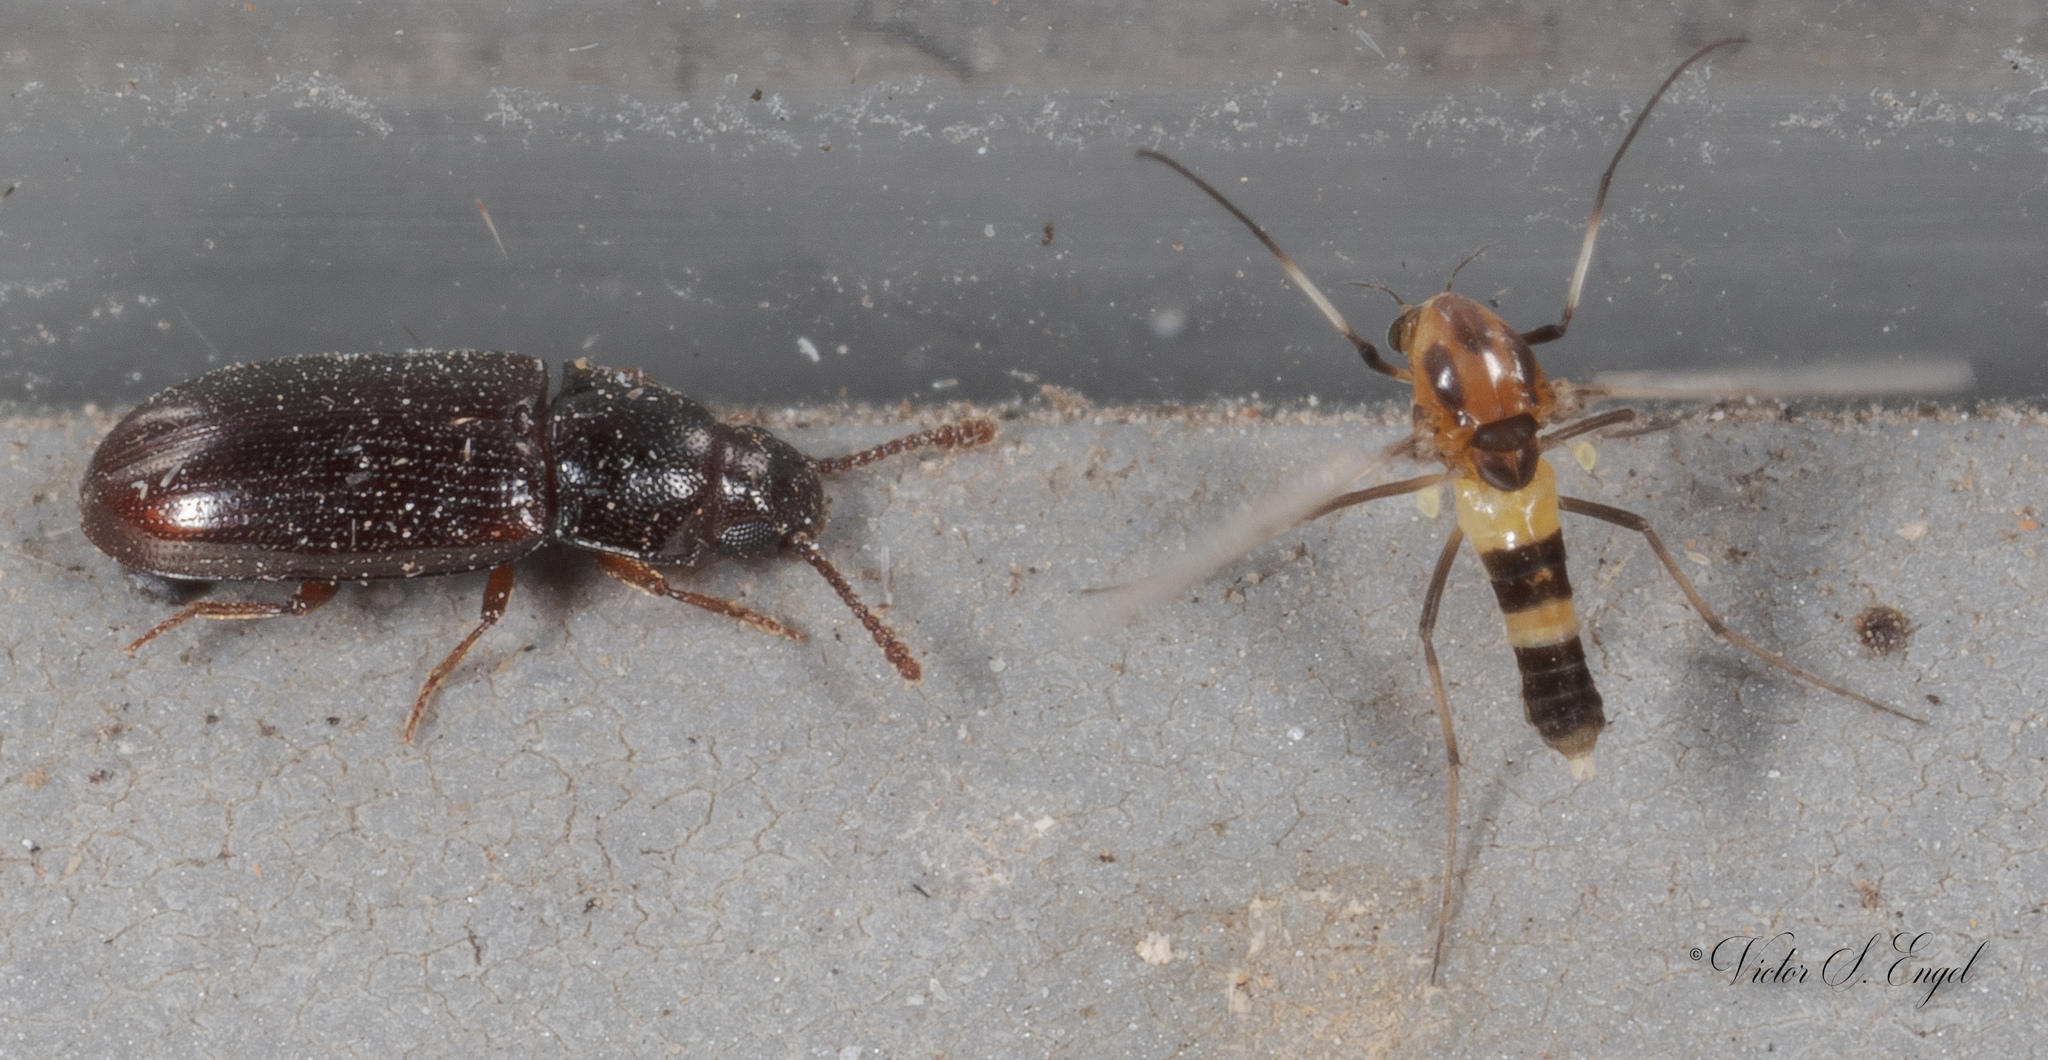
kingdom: Animalia
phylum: Arthropoda
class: Insecta
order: Coleoptera
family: Erotylidae
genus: Pharaxonotha
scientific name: Pharaxonotha kirschii
